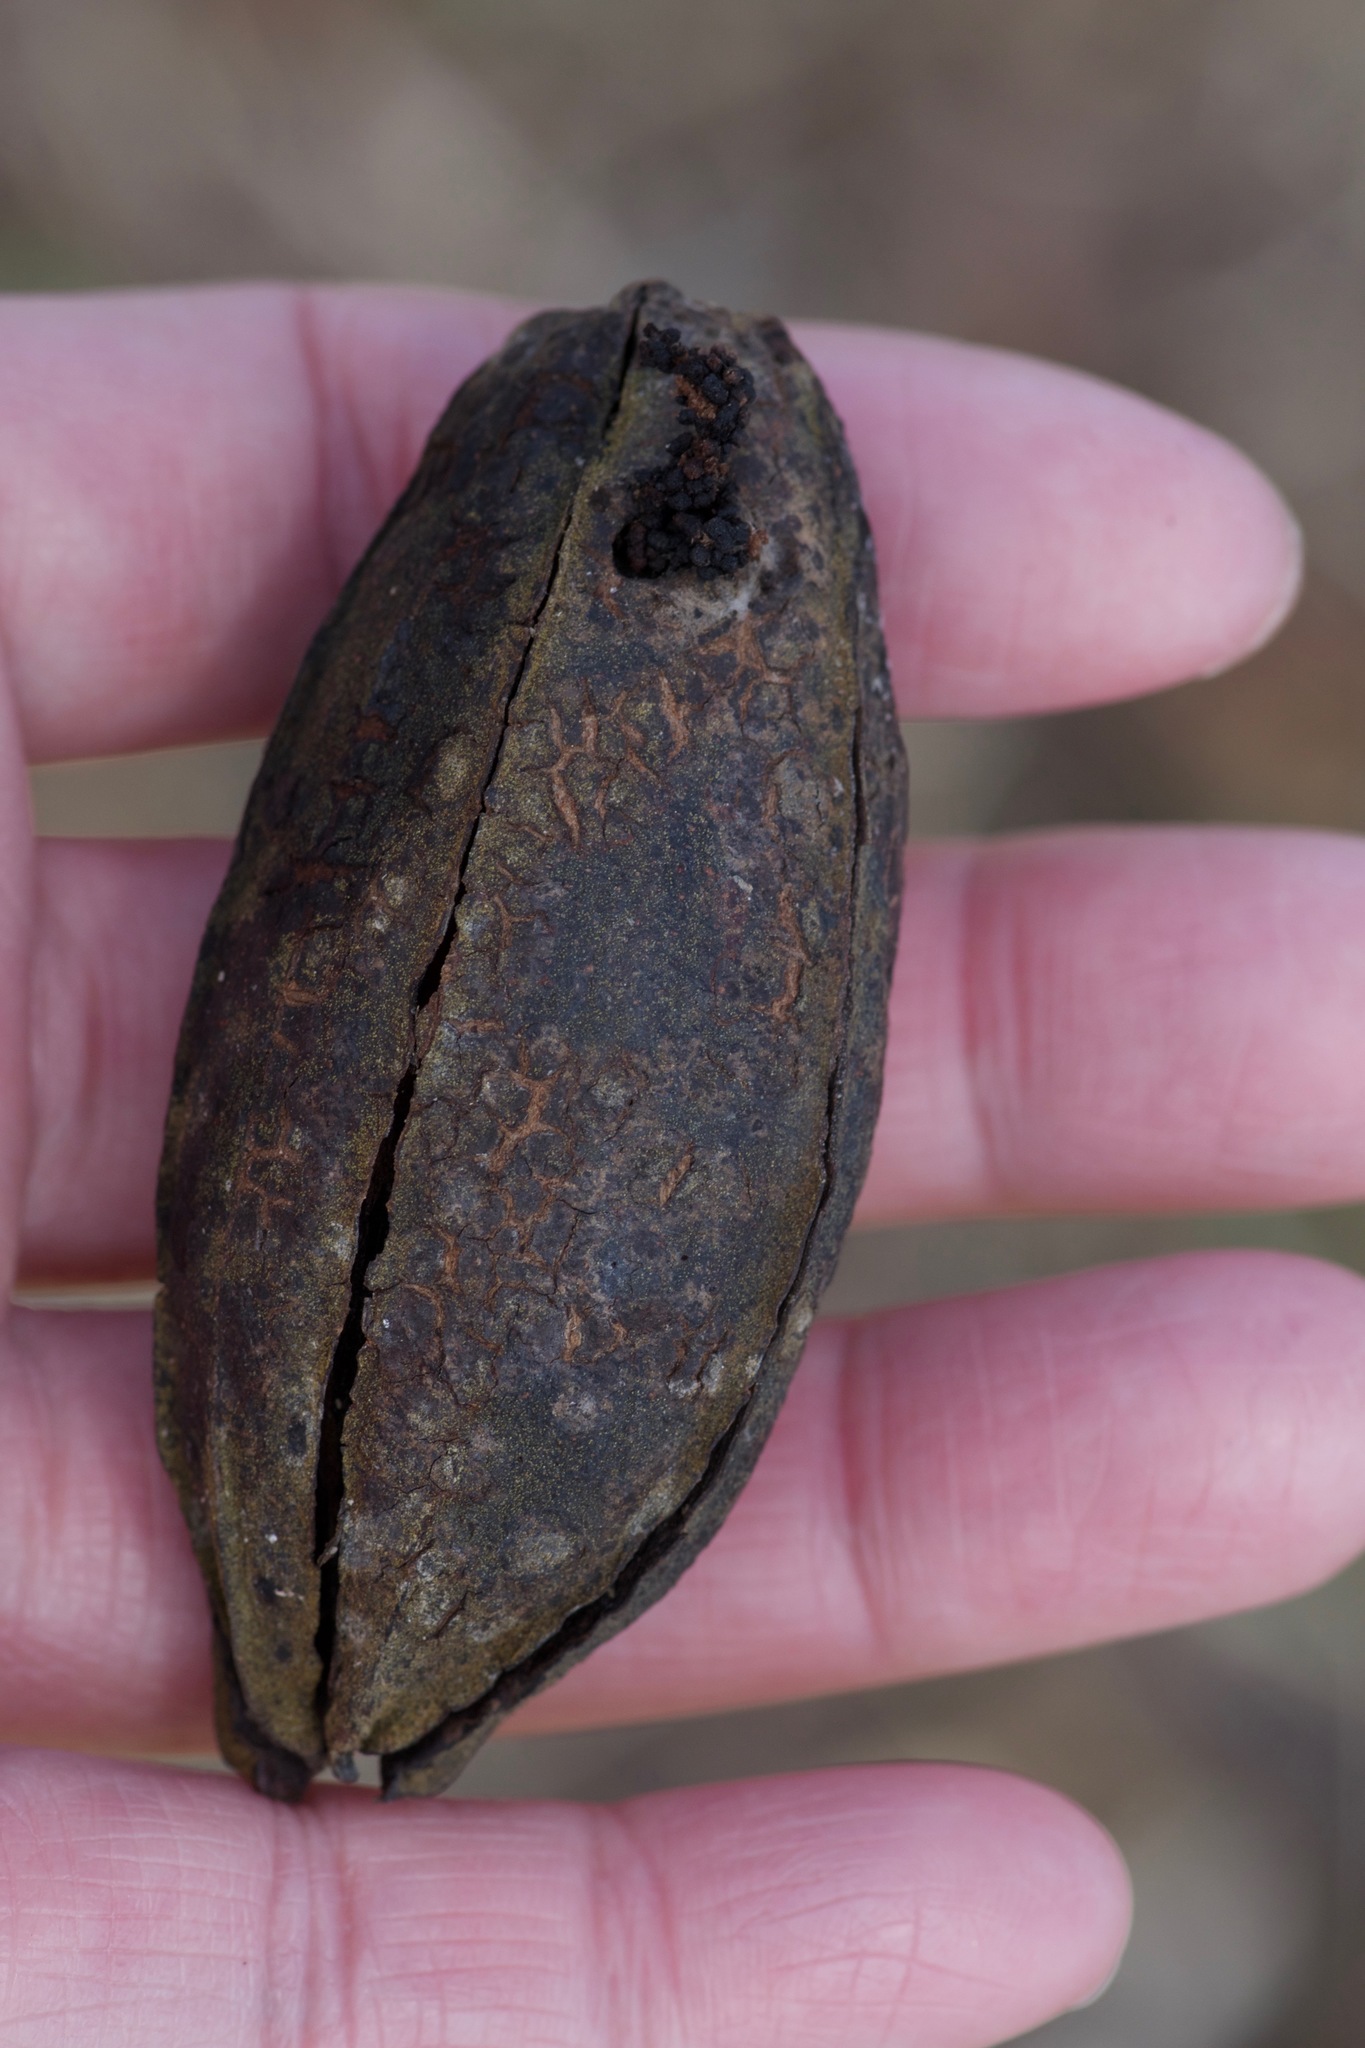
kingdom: Plantae
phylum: Tracheophyta
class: Magnoliopsida
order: Fagales
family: Juglandaceae
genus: Carya
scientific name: Carya illinoinensis
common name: Pecan
